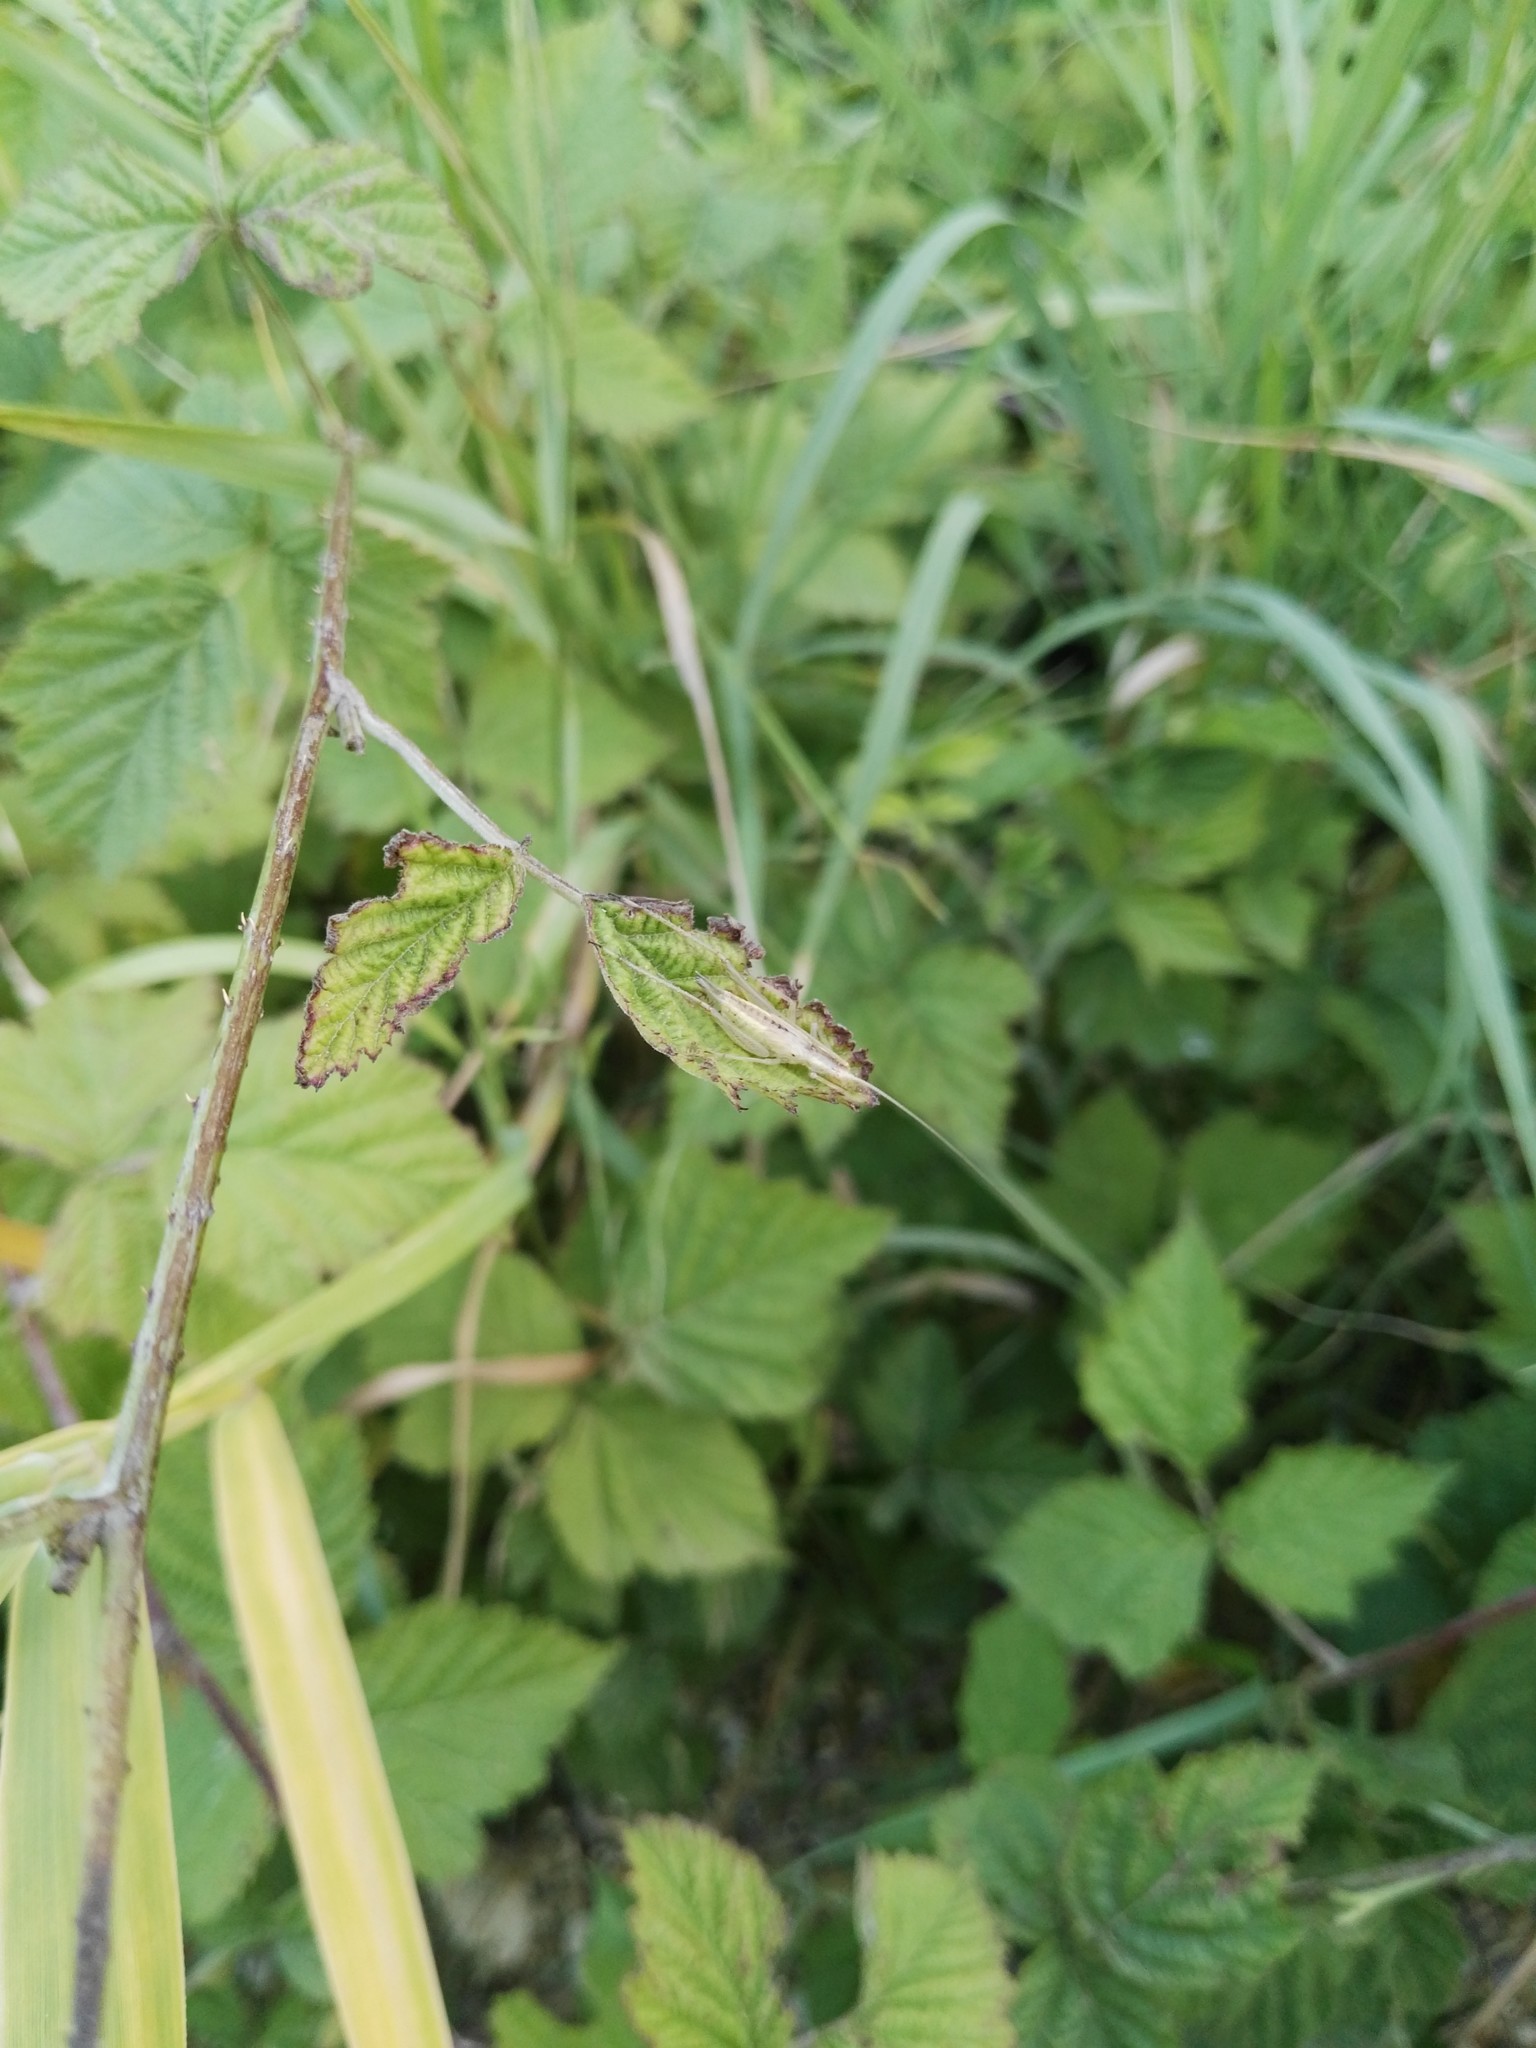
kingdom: Animalia
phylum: Arthropoda
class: Insecta
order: Orthoptera
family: Gryllidae
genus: Oecanthus
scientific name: Oecanthus pellucens
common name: Tree-cricket
